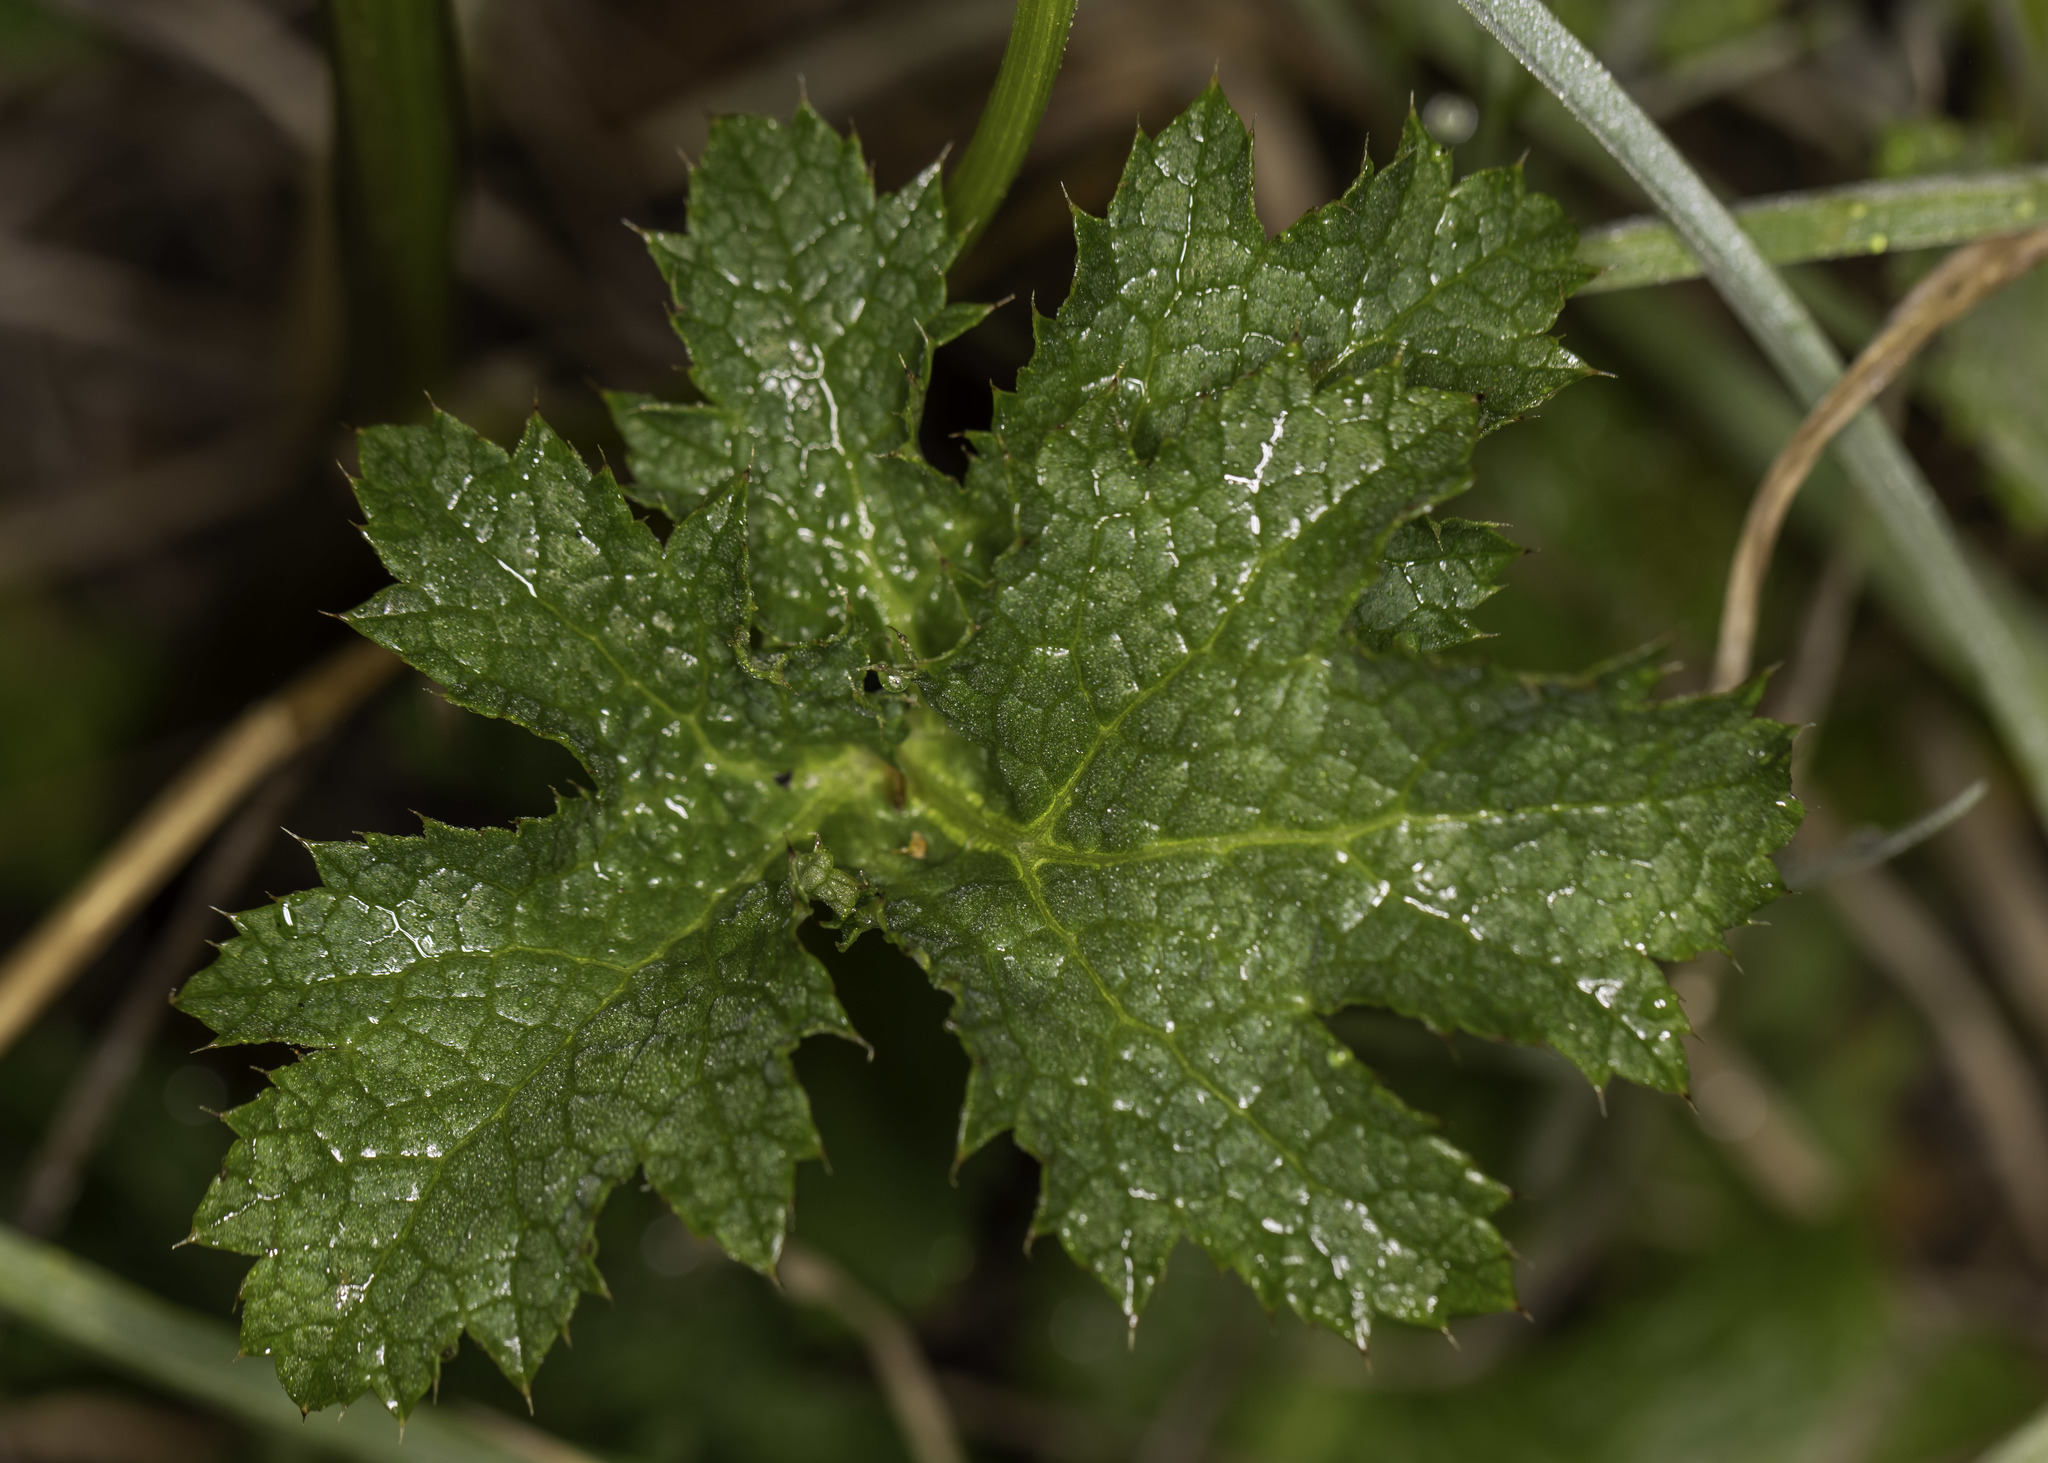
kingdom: Plantae
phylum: Tracheophyta
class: Magnoliopsida
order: Apiales
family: Apiaceae
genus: Sanicula
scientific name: Sanicula crassicaulis
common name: Western snakeroot
